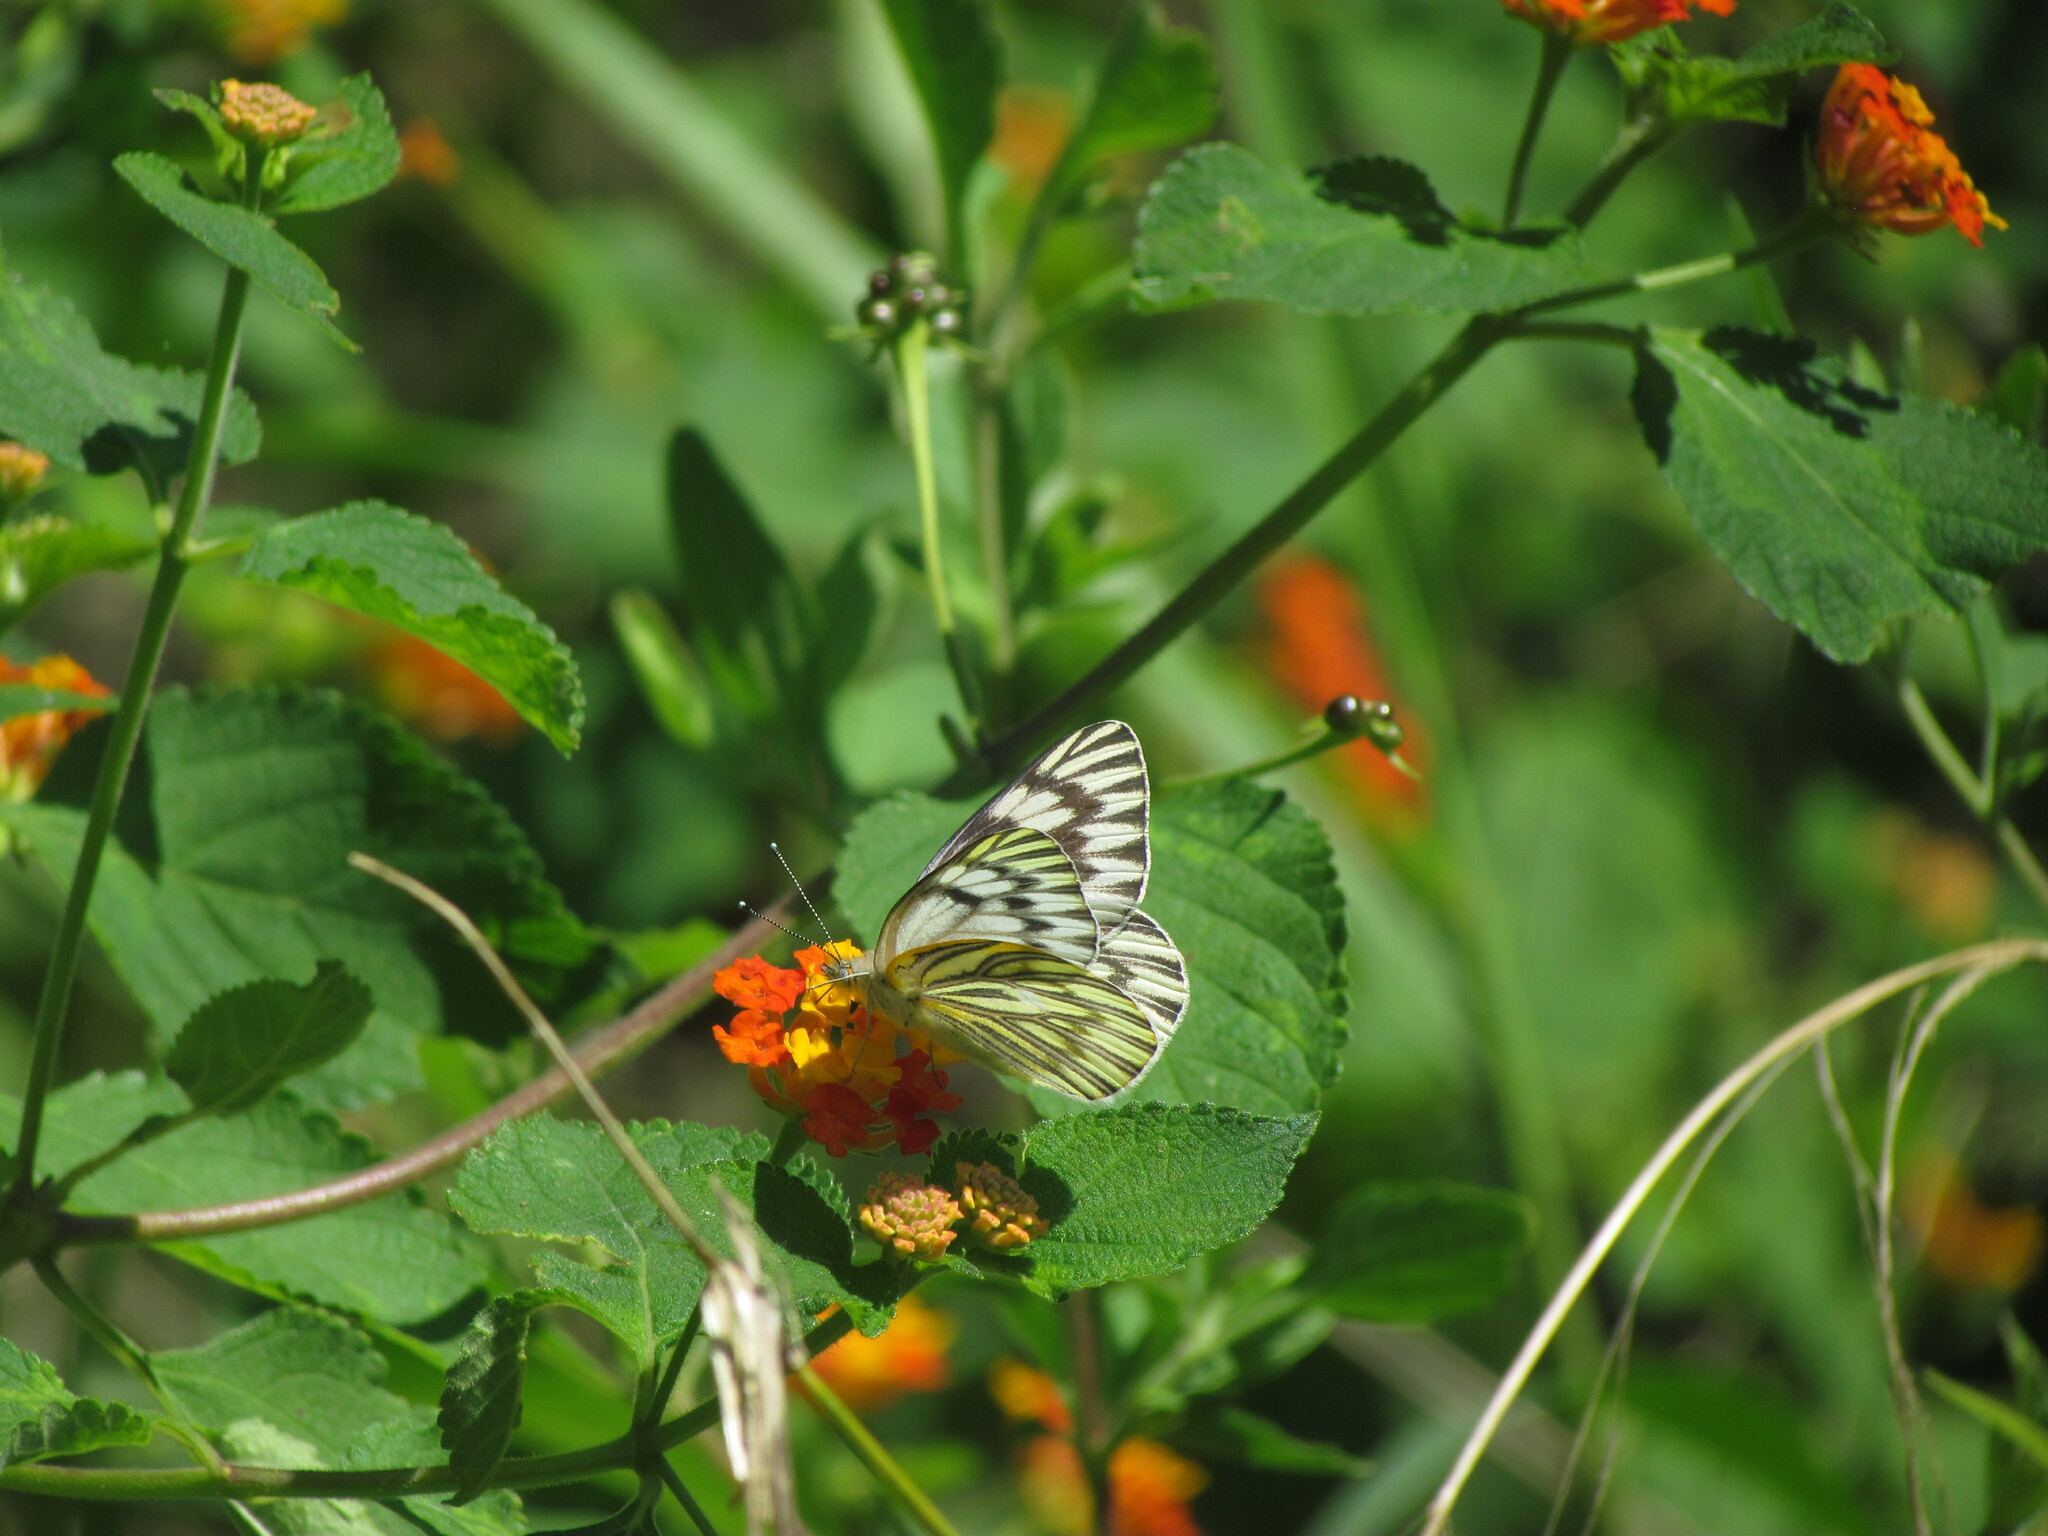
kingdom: Animalia
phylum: Arthropoda
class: Insecta
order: Lepidoptera
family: Pieridae
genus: Tatochila
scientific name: Tatochila mercedis
